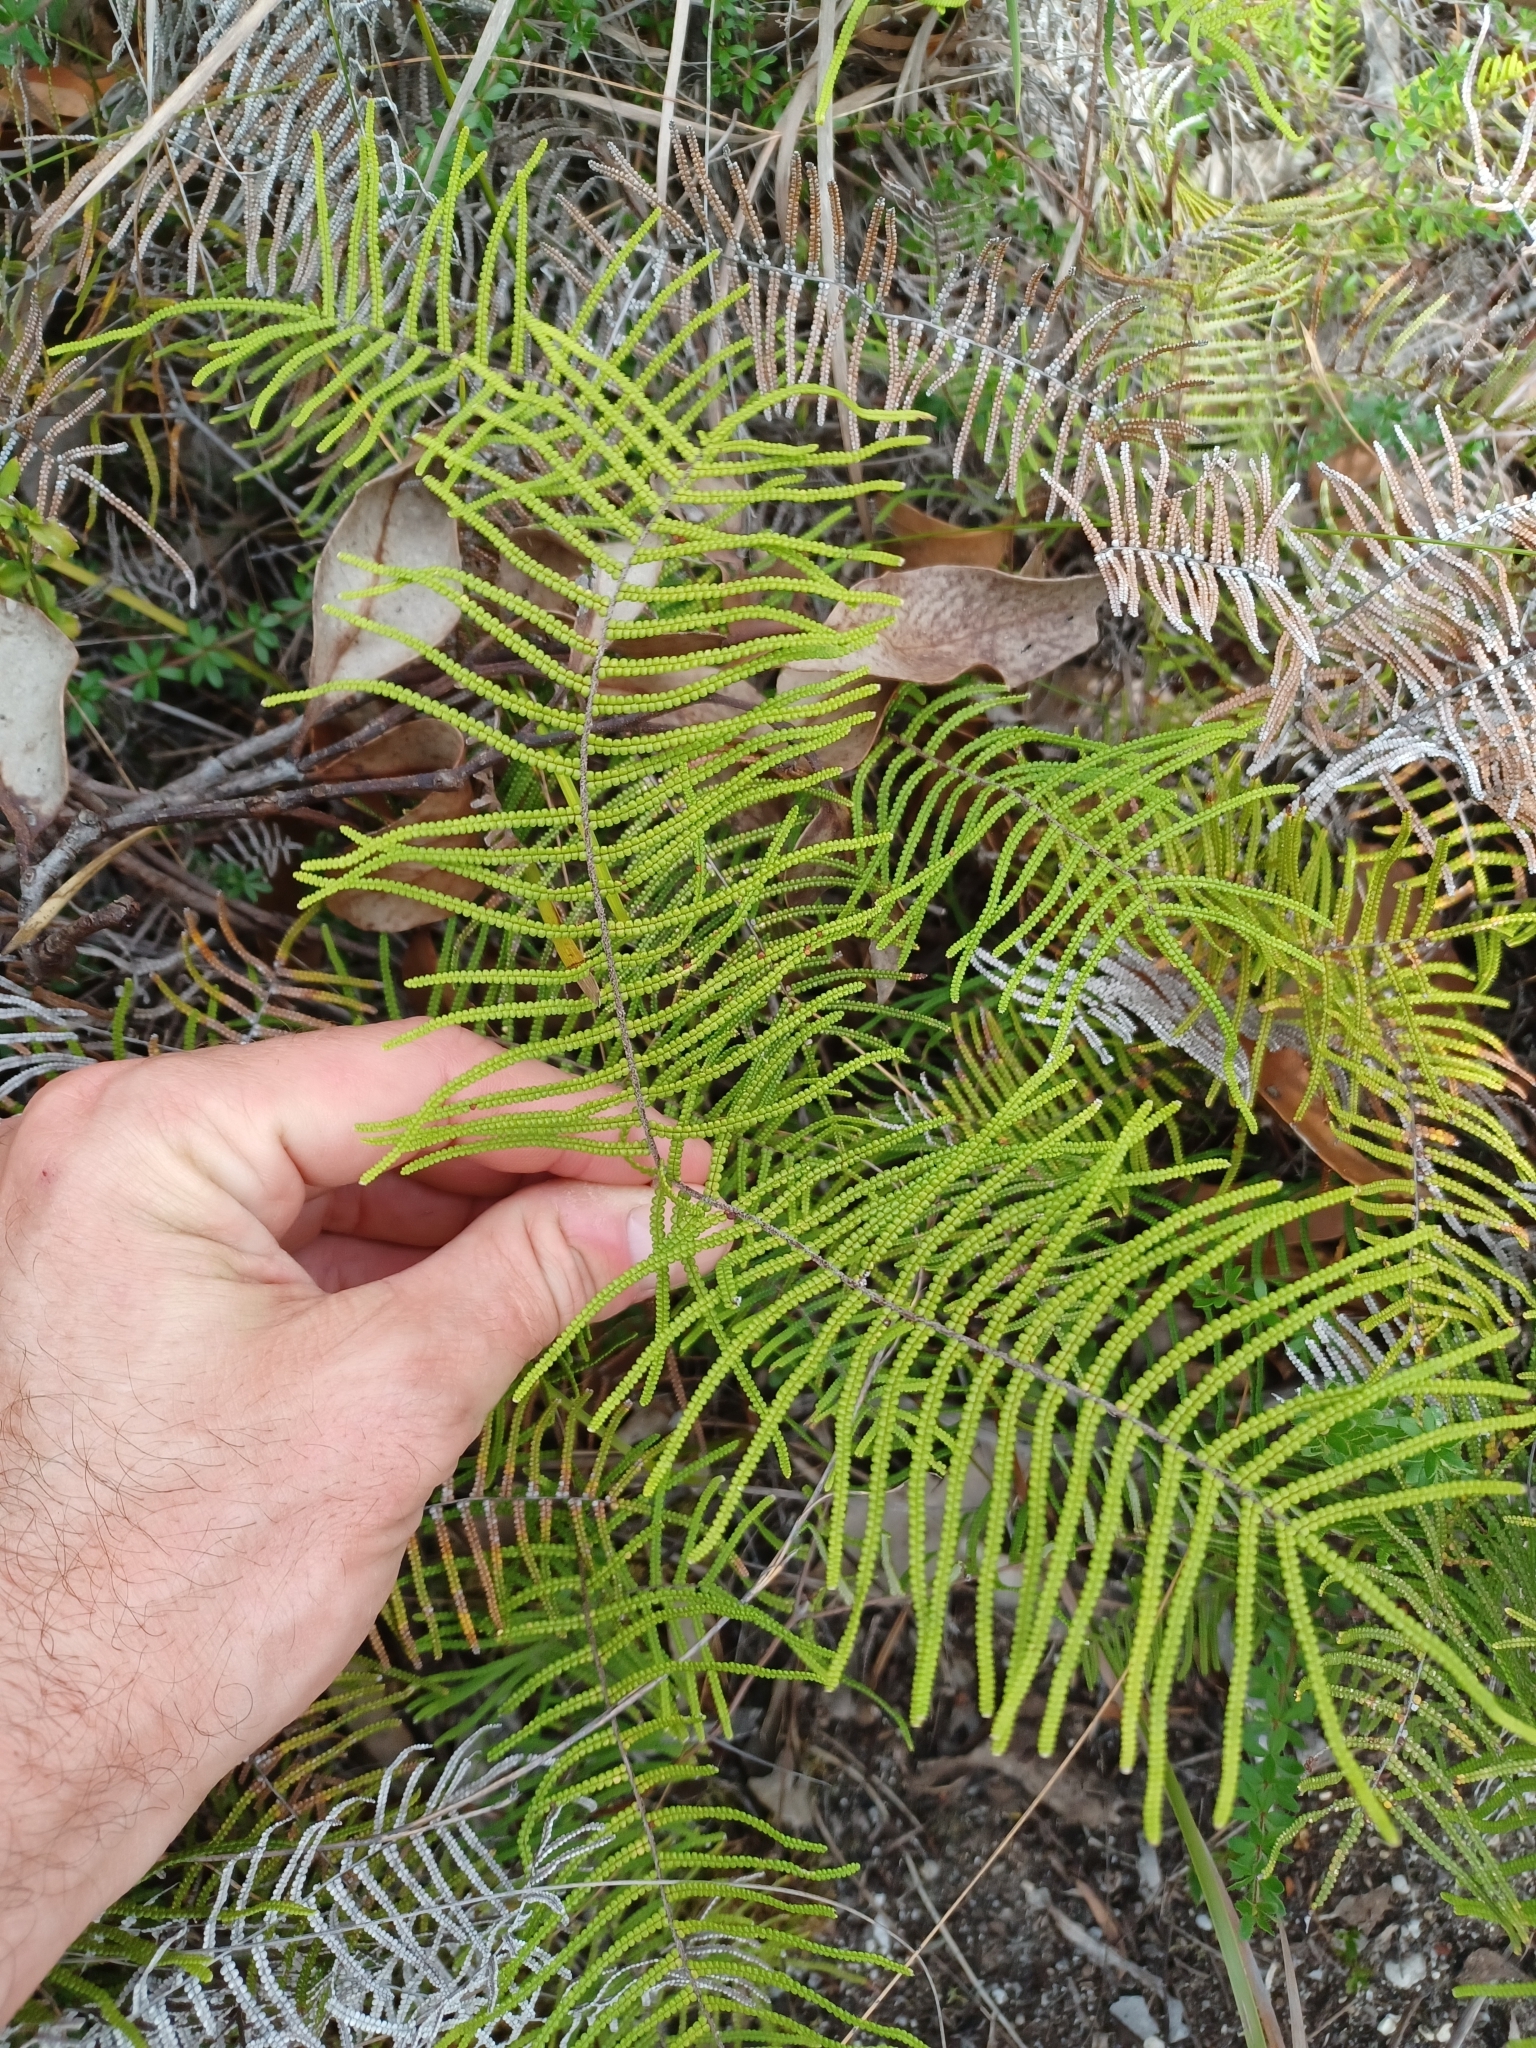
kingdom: Plantae
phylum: Tracheophyta
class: Polypodiopsida
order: Gleicheniales
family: Gleicheniaceae
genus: Gleichenia
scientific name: Gleichenia dicarpa
